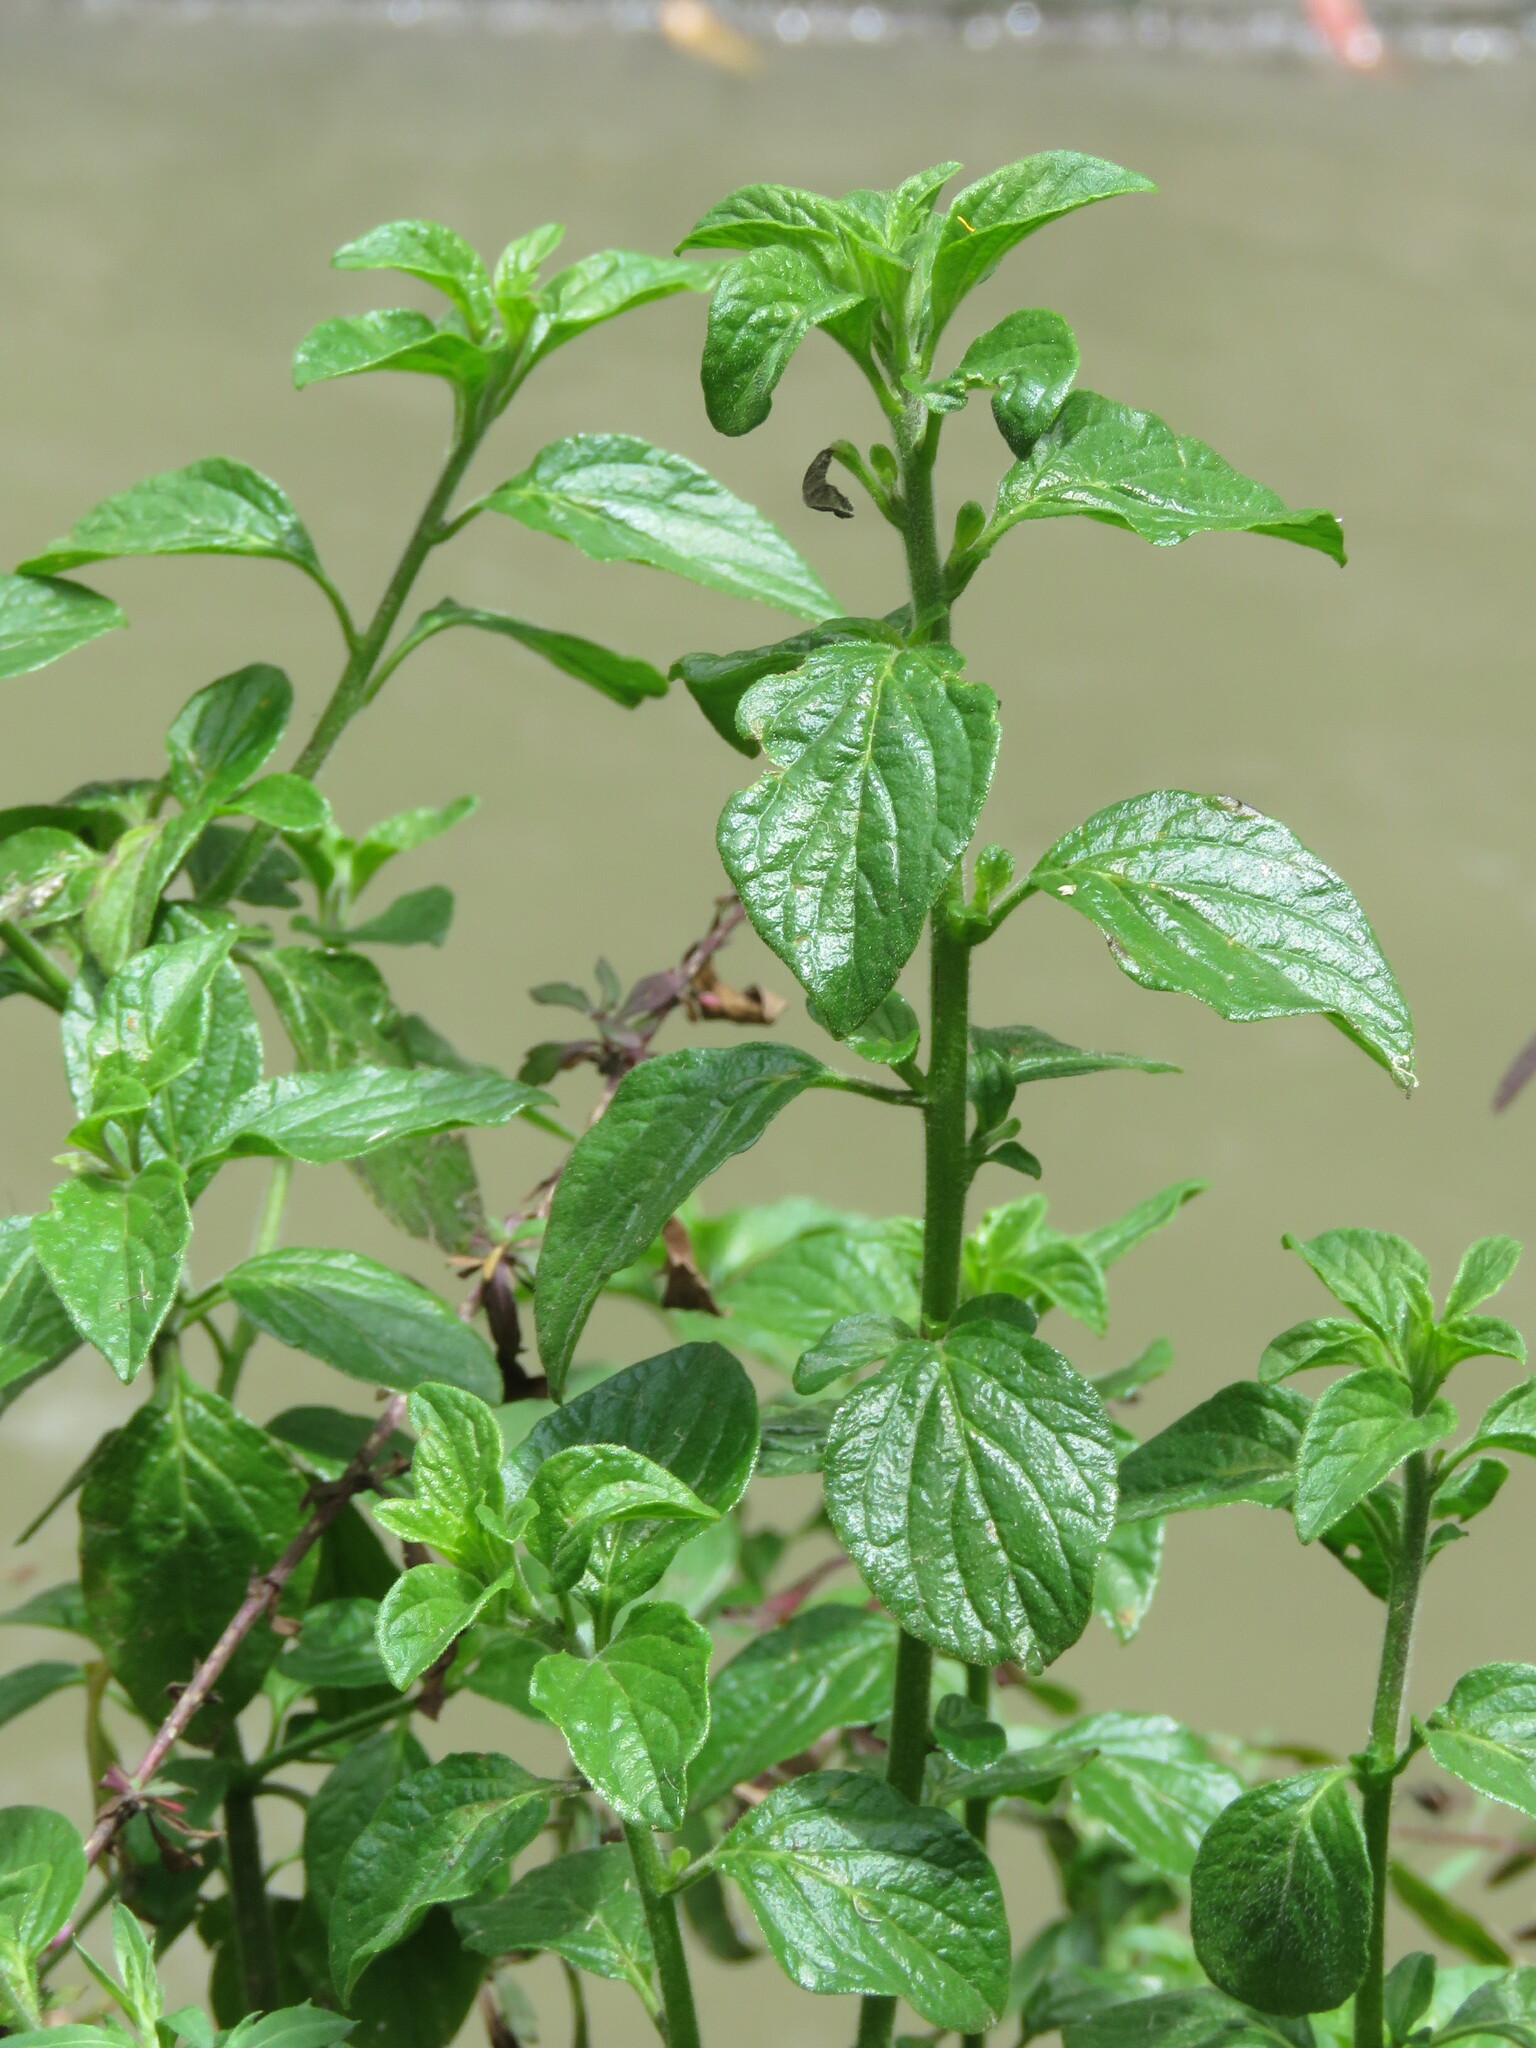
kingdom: Plantae
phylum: Tracheophyta
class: Magnoliopsida
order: Solanales
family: Solanaceae
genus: Streptosolen
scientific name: Streptosolen jamesonii
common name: Marmalade bush
